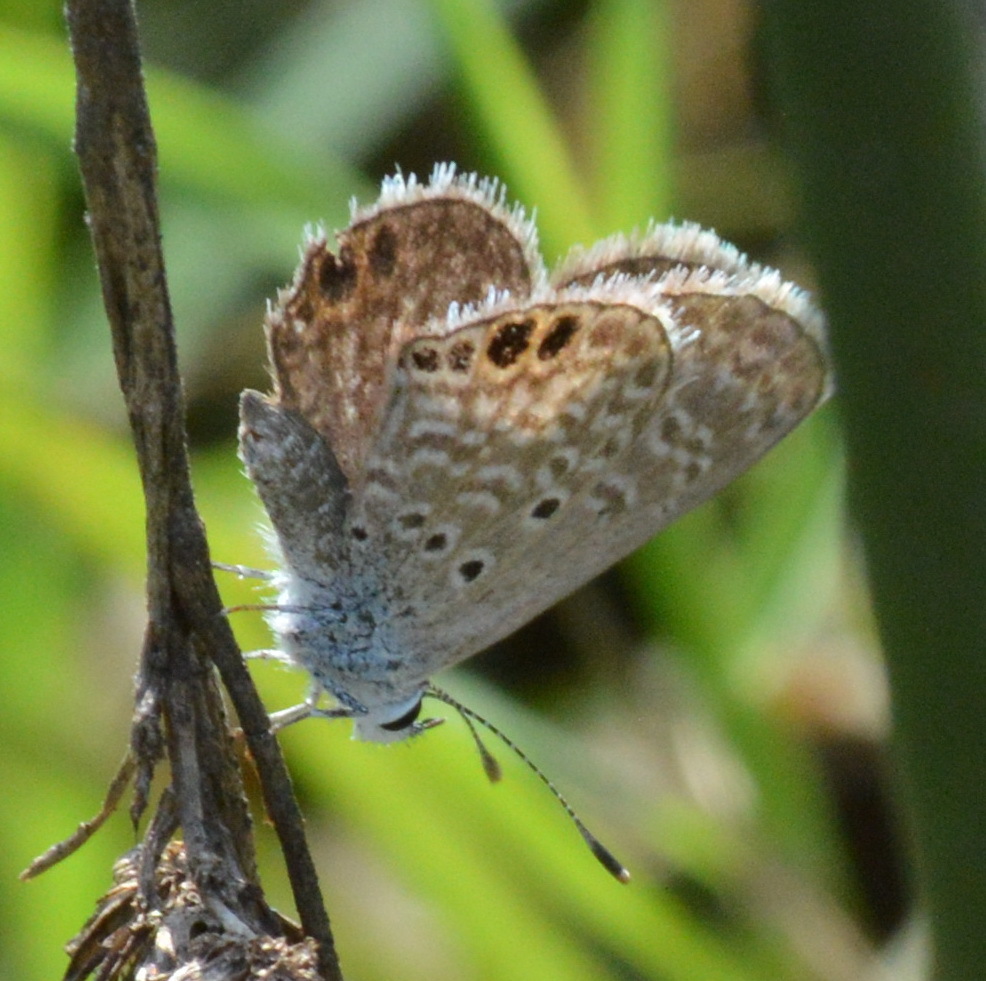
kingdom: Animalia
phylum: Arthropoda
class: Insecta
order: Lepidoptera
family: Lycaenidae
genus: Hemiargus
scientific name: Hemiargus ceraunus
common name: Ceraunus blue
